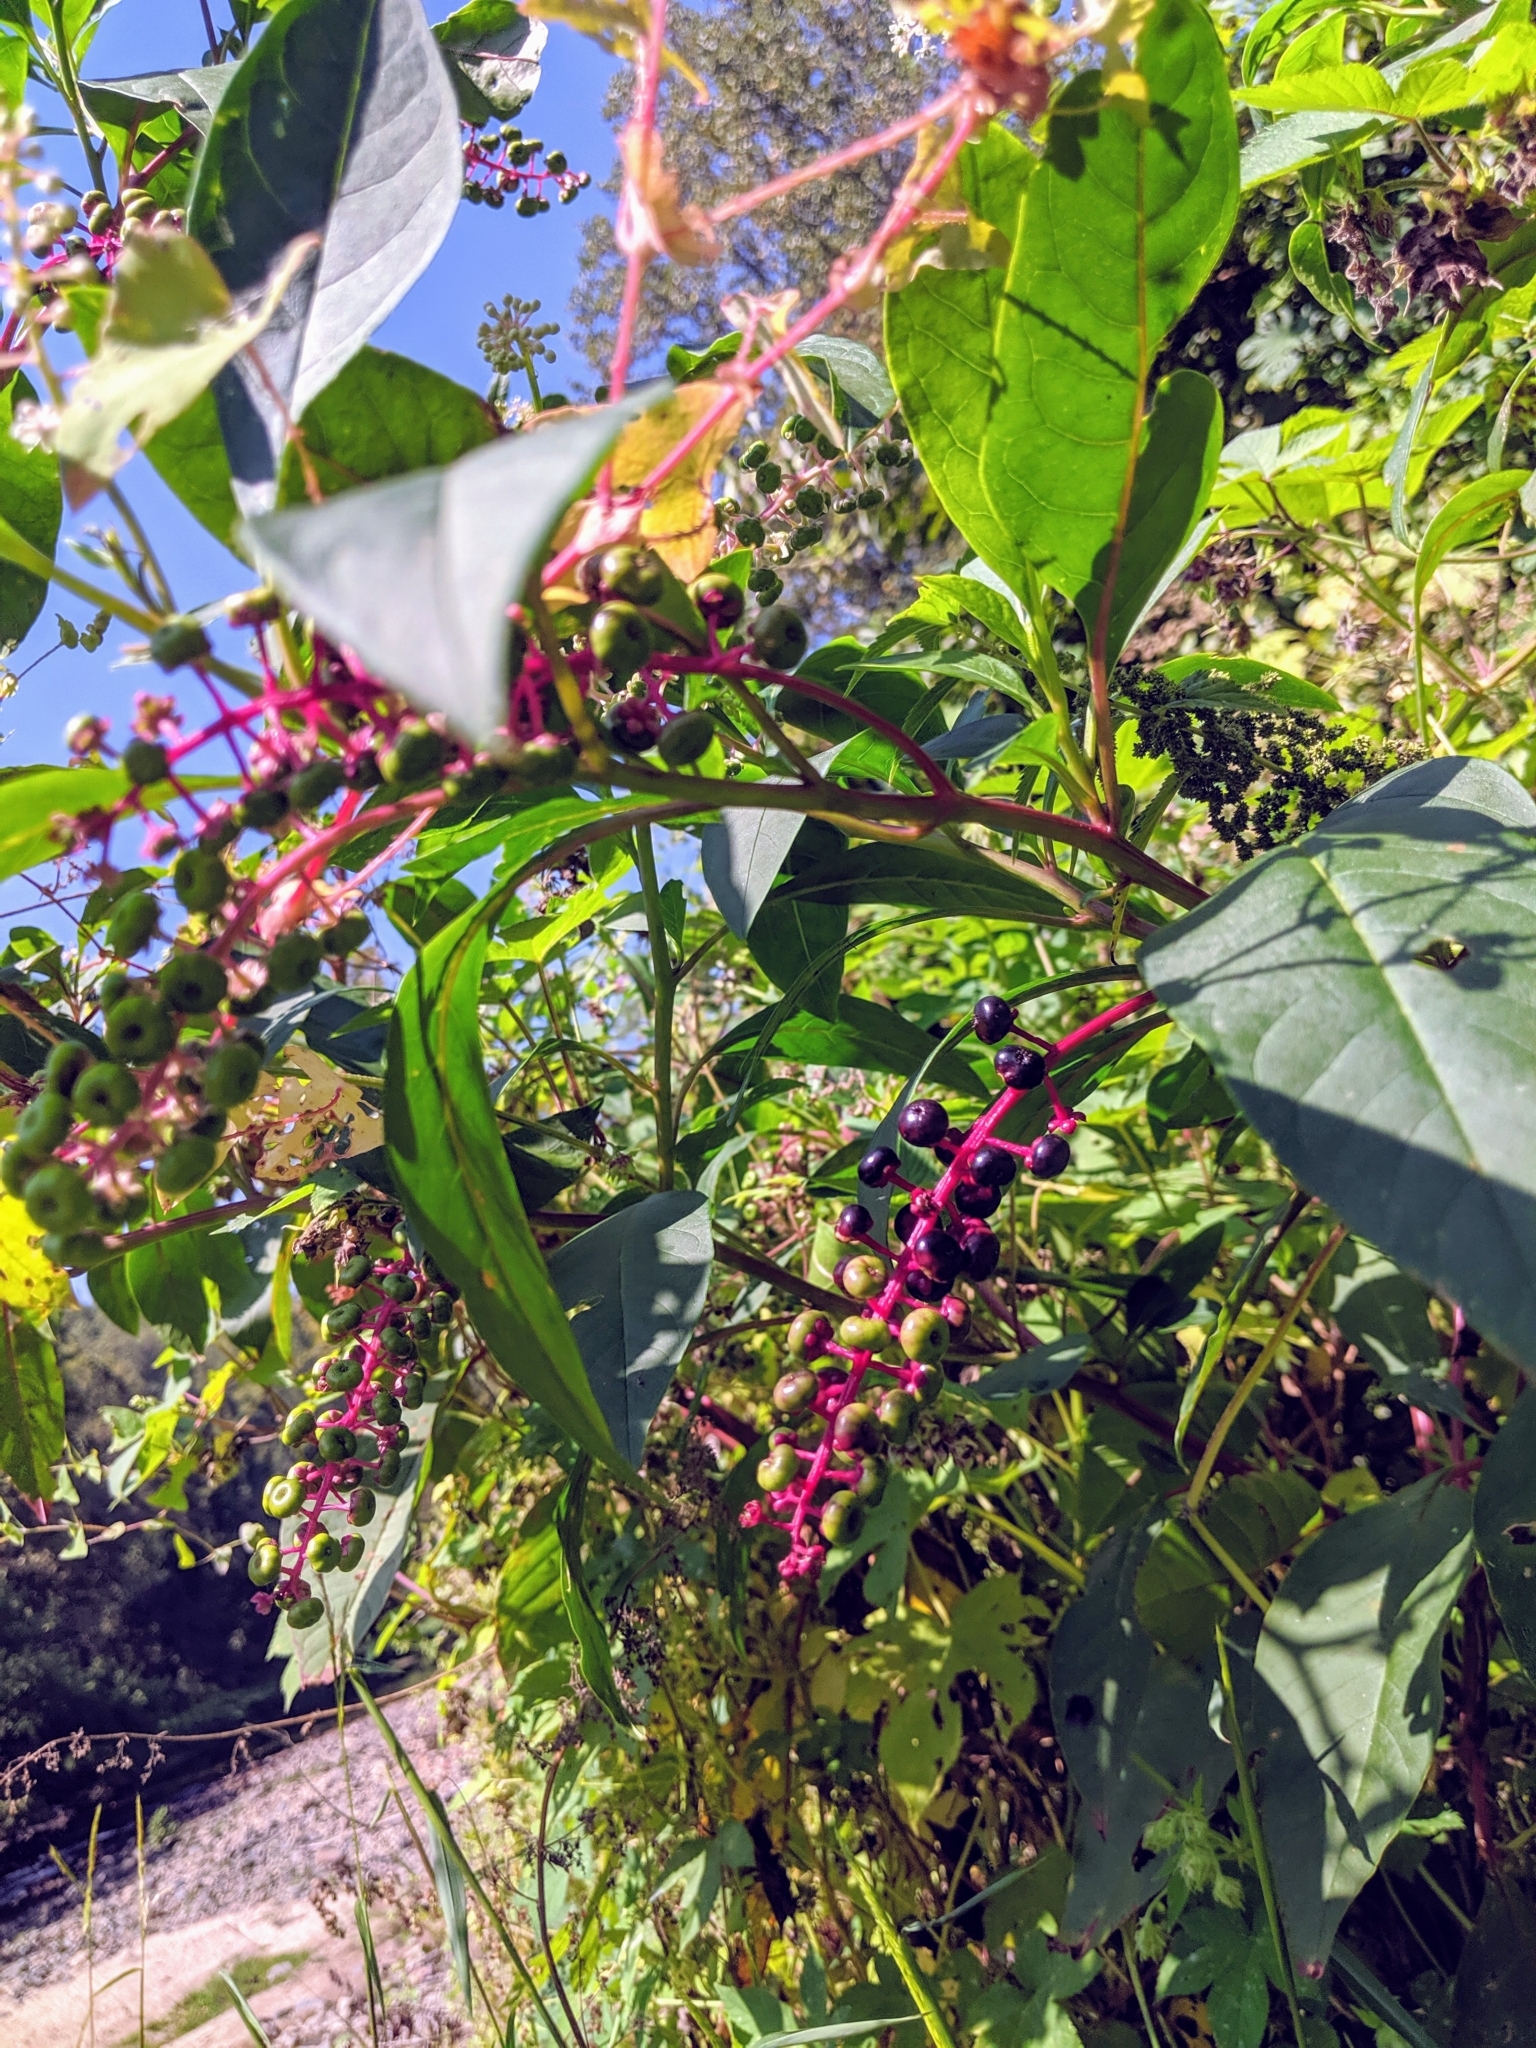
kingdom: Plantae
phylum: Tracheophyta
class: Magnoliopsida
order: Caryophyllales
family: Phytolaccaceae
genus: Phytolacca
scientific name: Phytolacca americana
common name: American pokeweed
